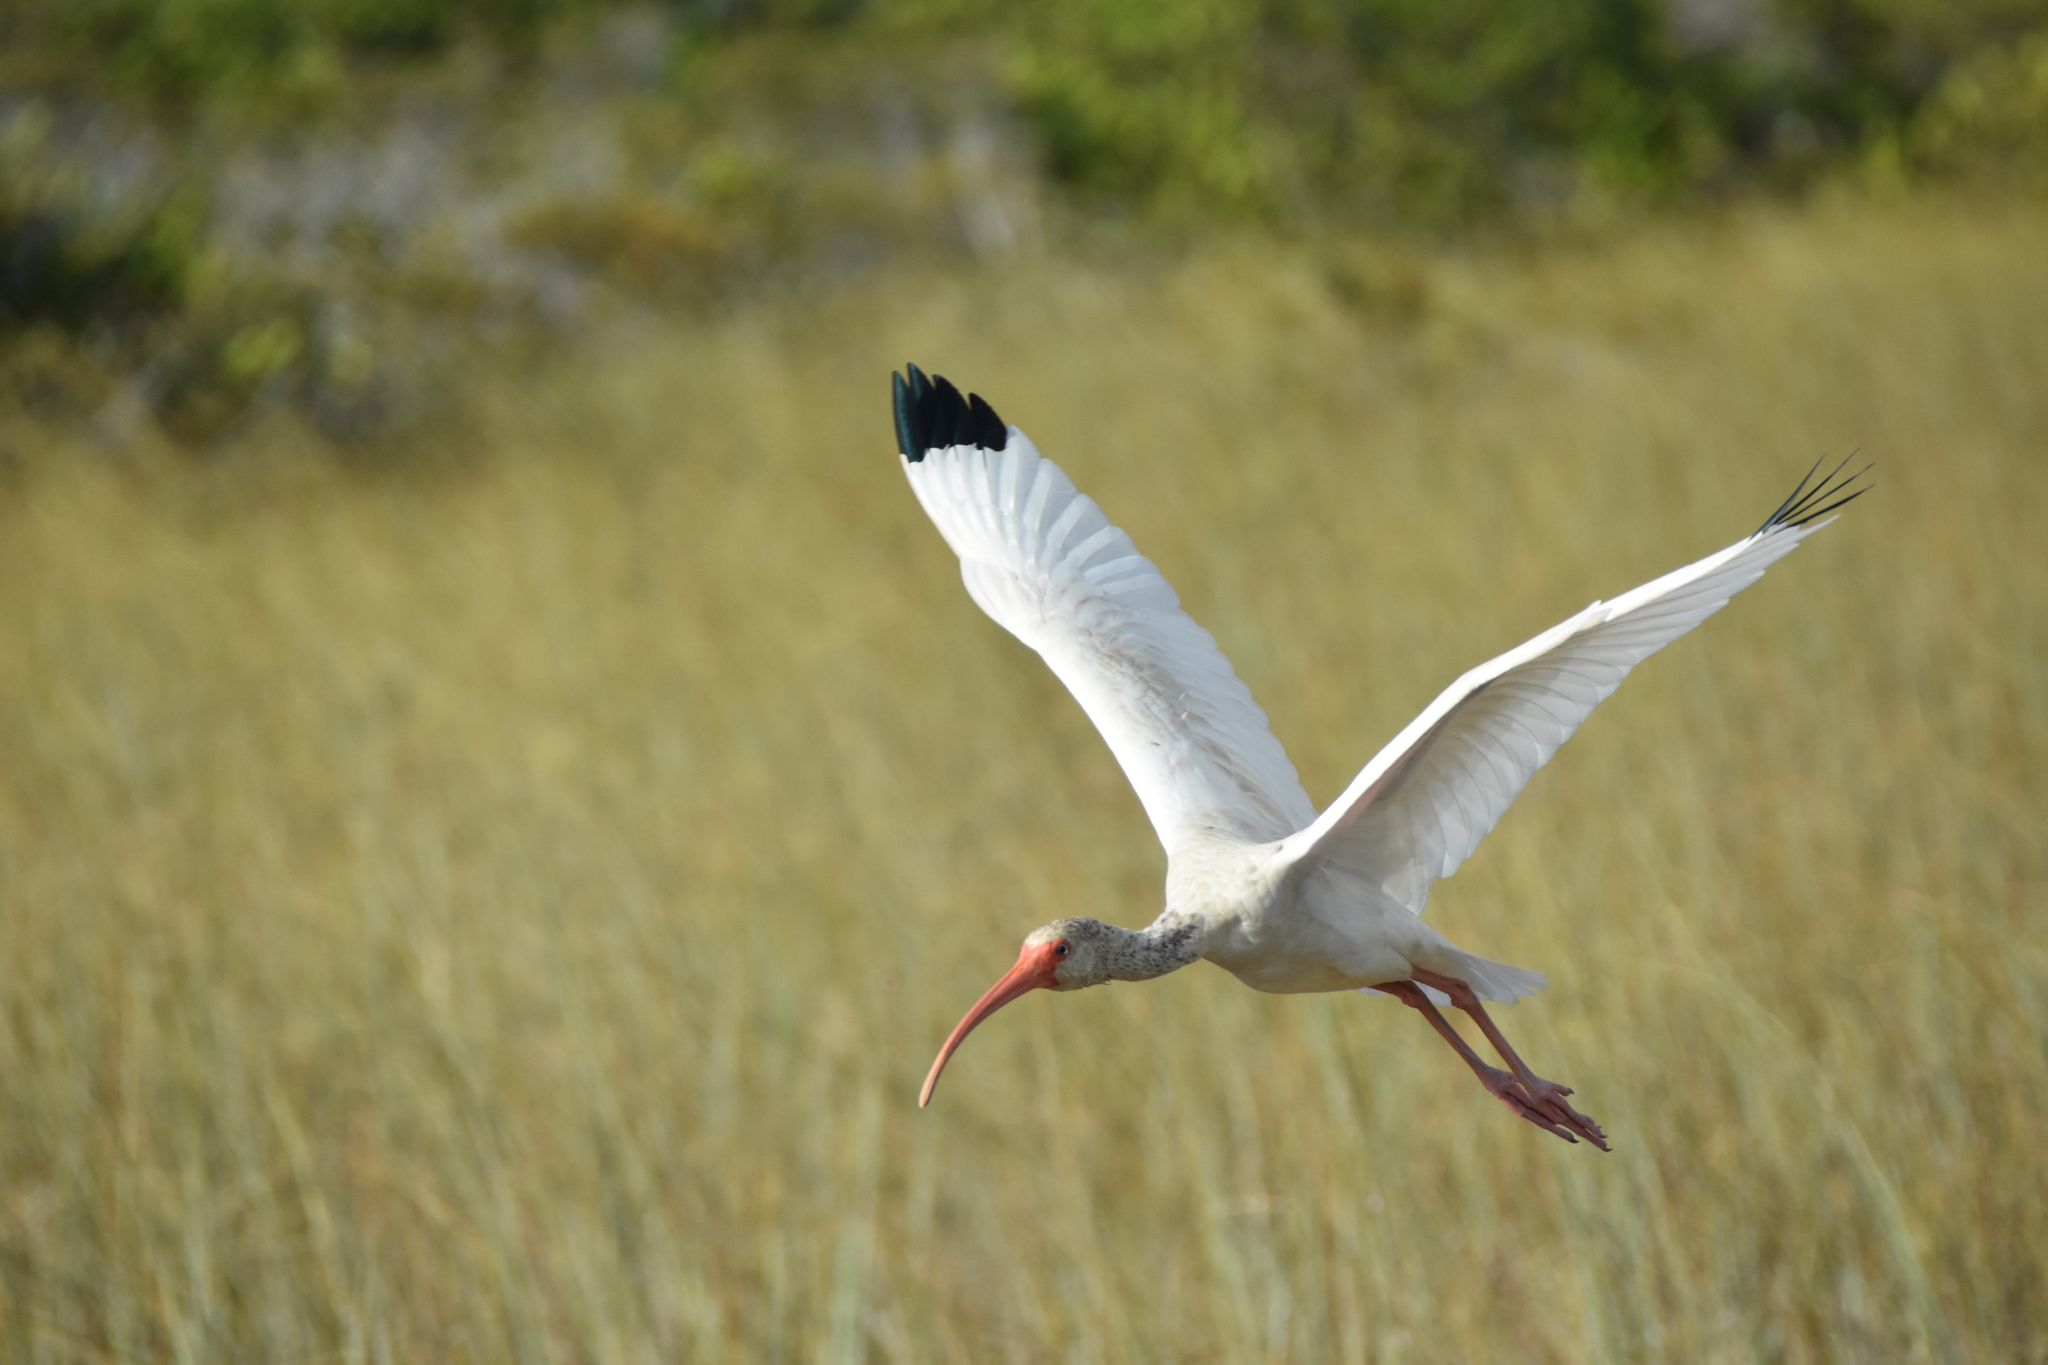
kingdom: Animalia
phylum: Chordata
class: Aves
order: Pelecaniformes
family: Threskiornithidae
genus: Eudocimus
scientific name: Eudocimus albus
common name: White ibis
